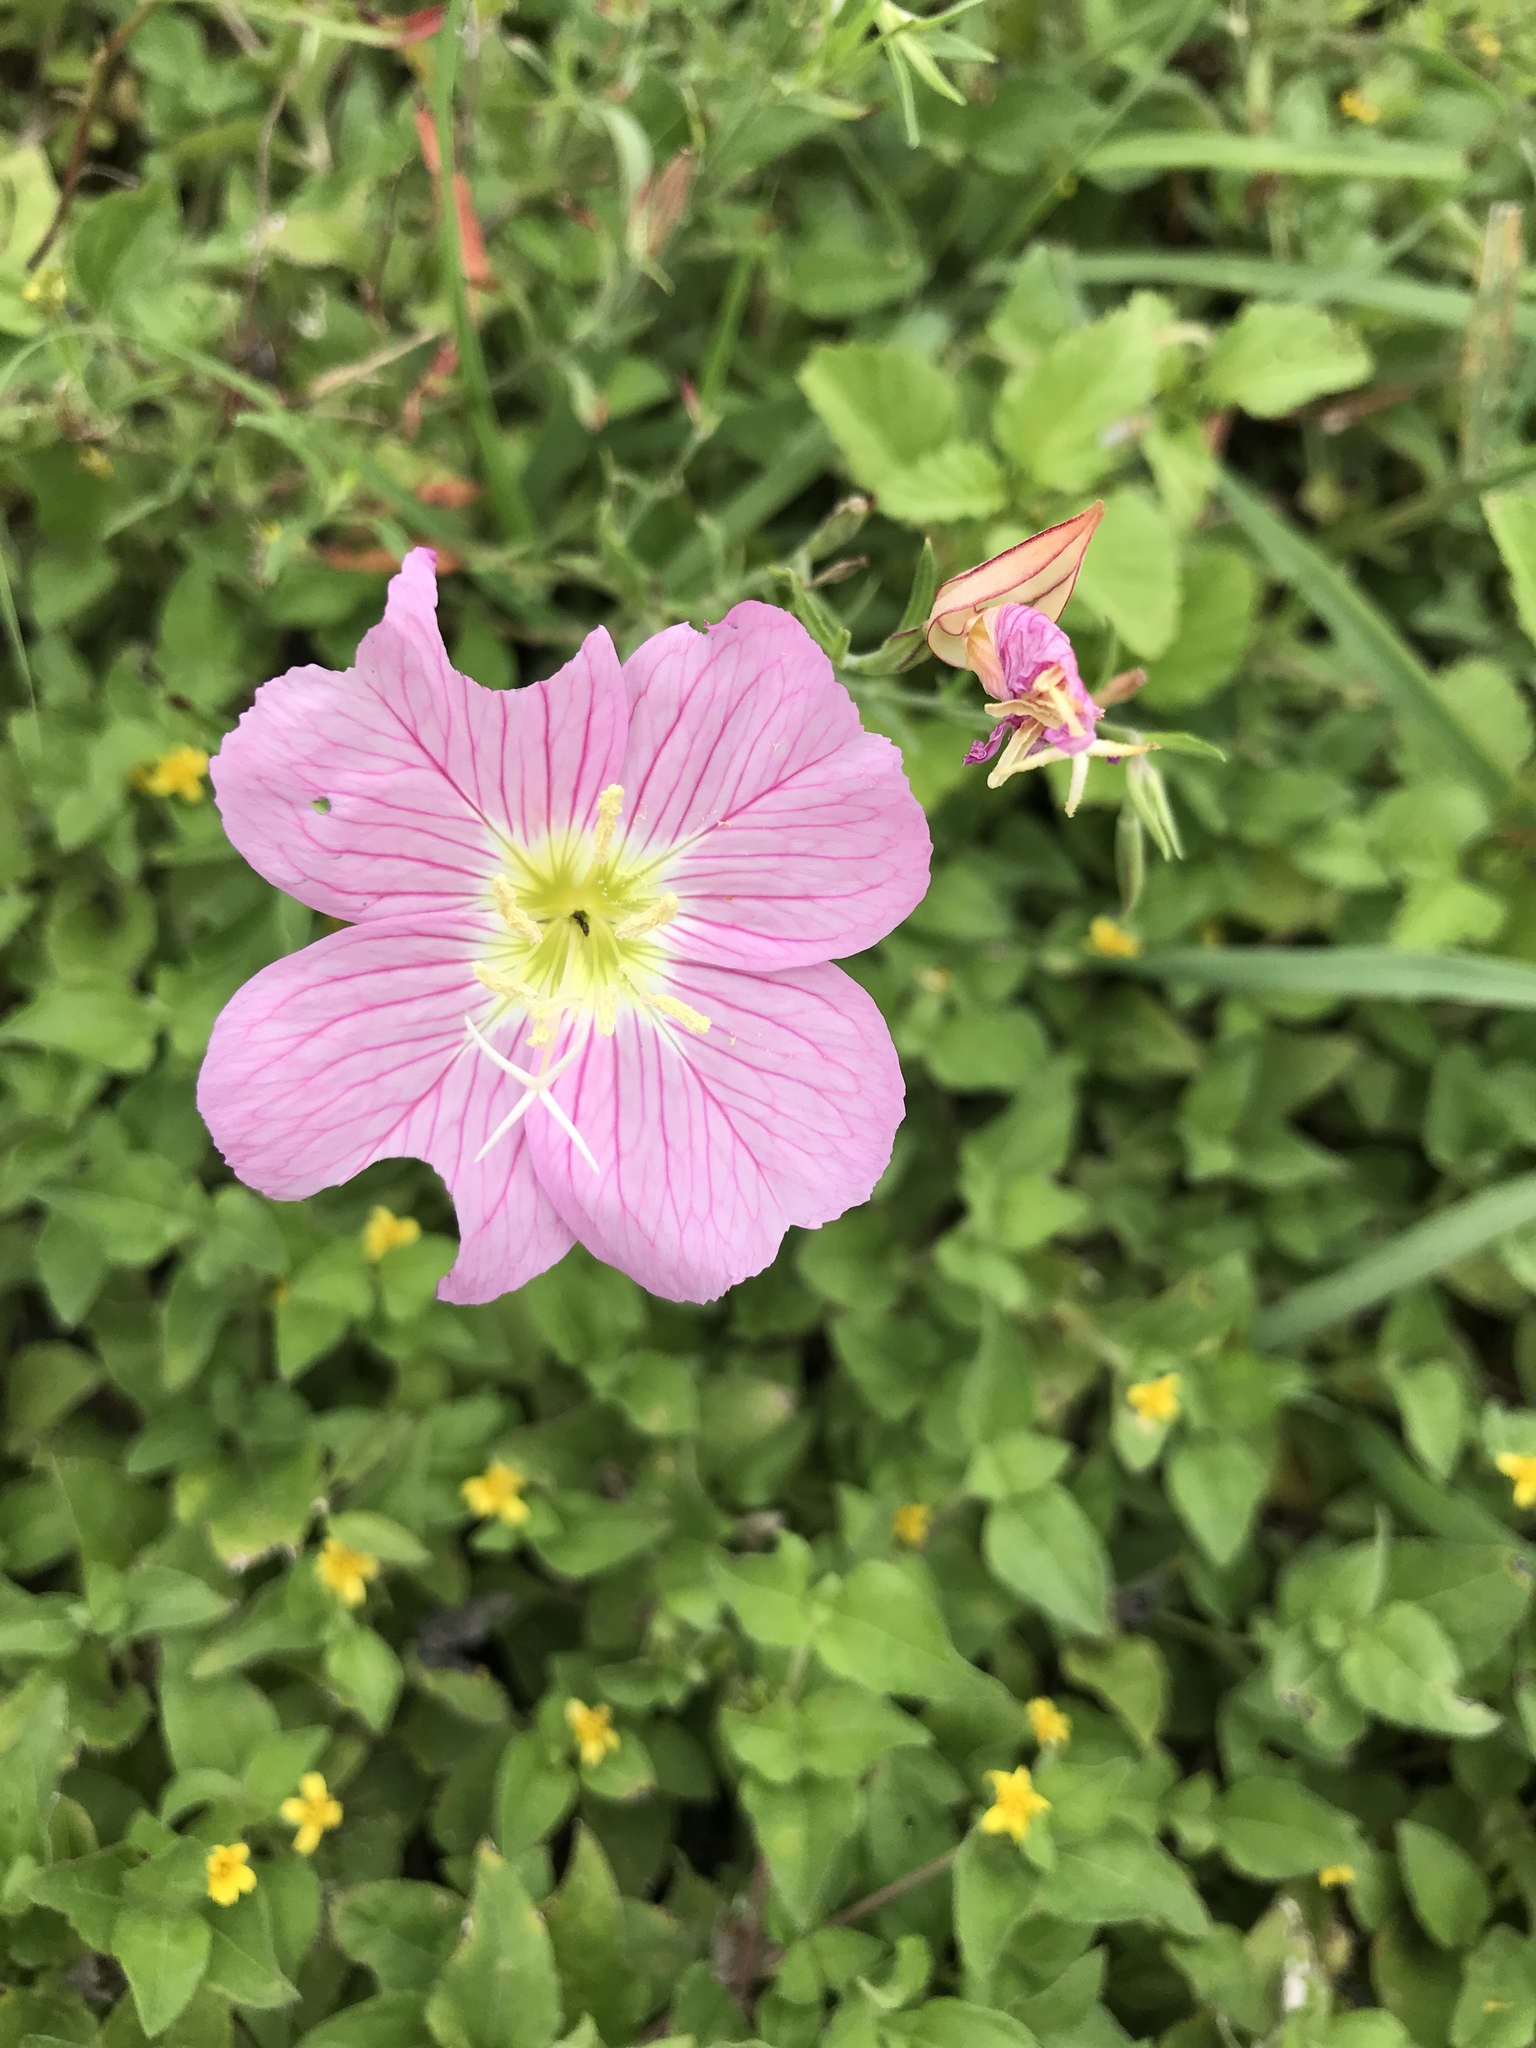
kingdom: Plantae
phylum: Tracheophyta
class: Magnoliopsida
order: Myrtales
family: Onagraceae
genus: Oenothera
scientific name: Oenothera speciosa
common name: White evening-primrose
